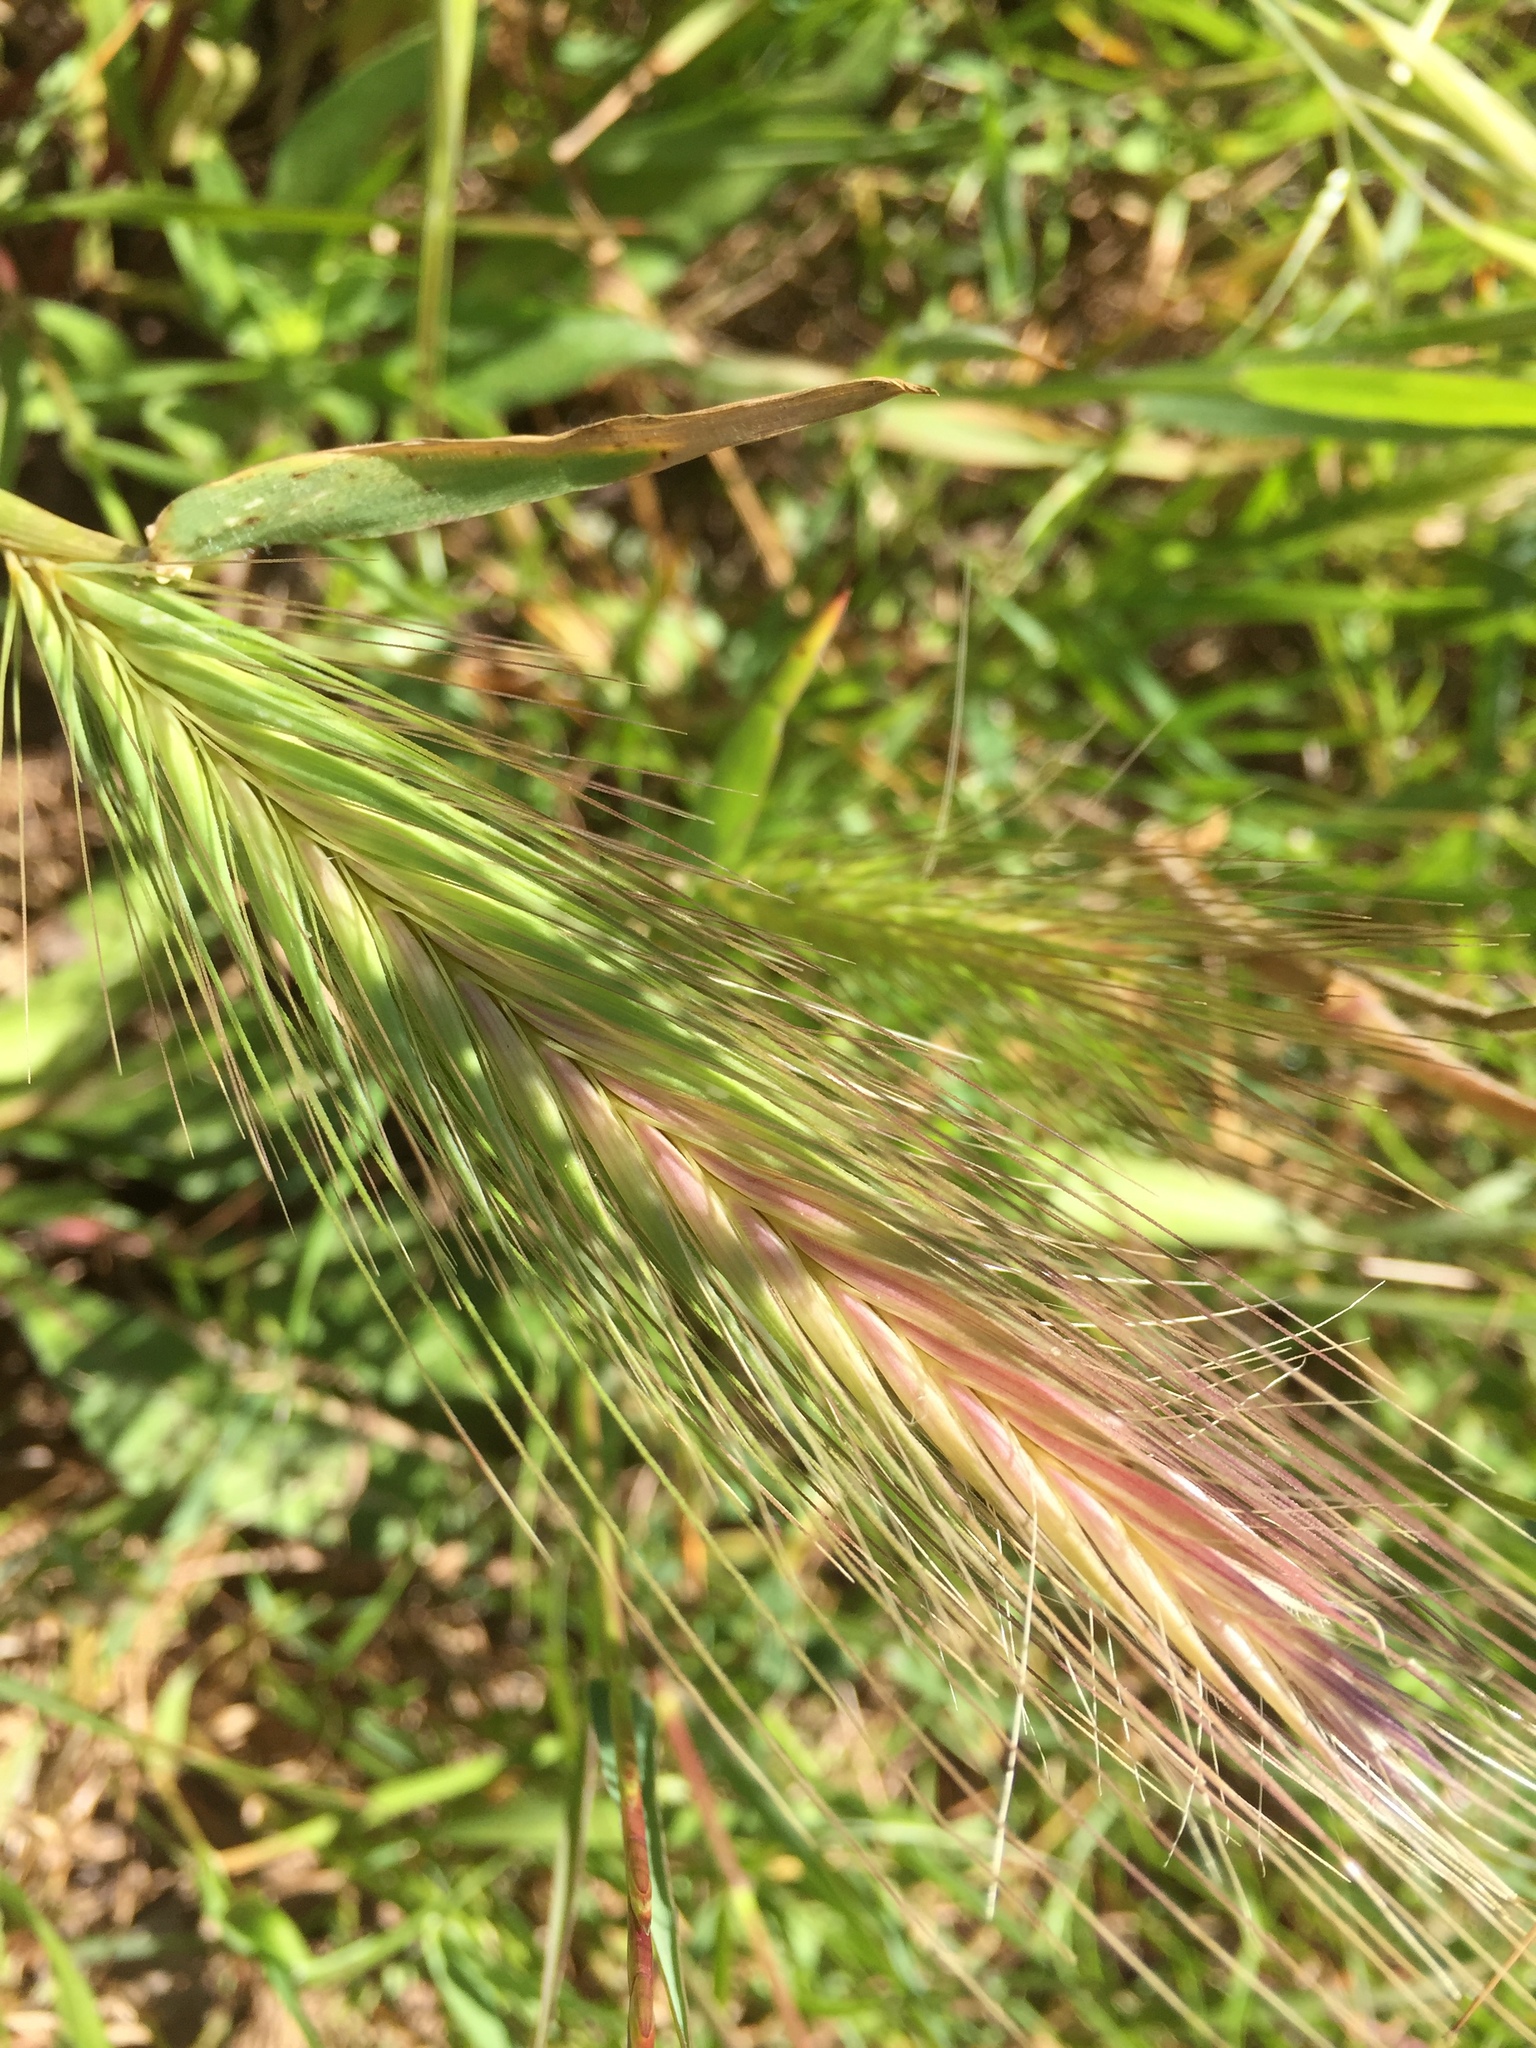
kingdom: Plantae
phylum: Tracheophyta
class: Liliopsida
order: Poales
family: Poaceae
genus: Hordeum
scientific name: Hordeum murinum
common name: Wall barley
